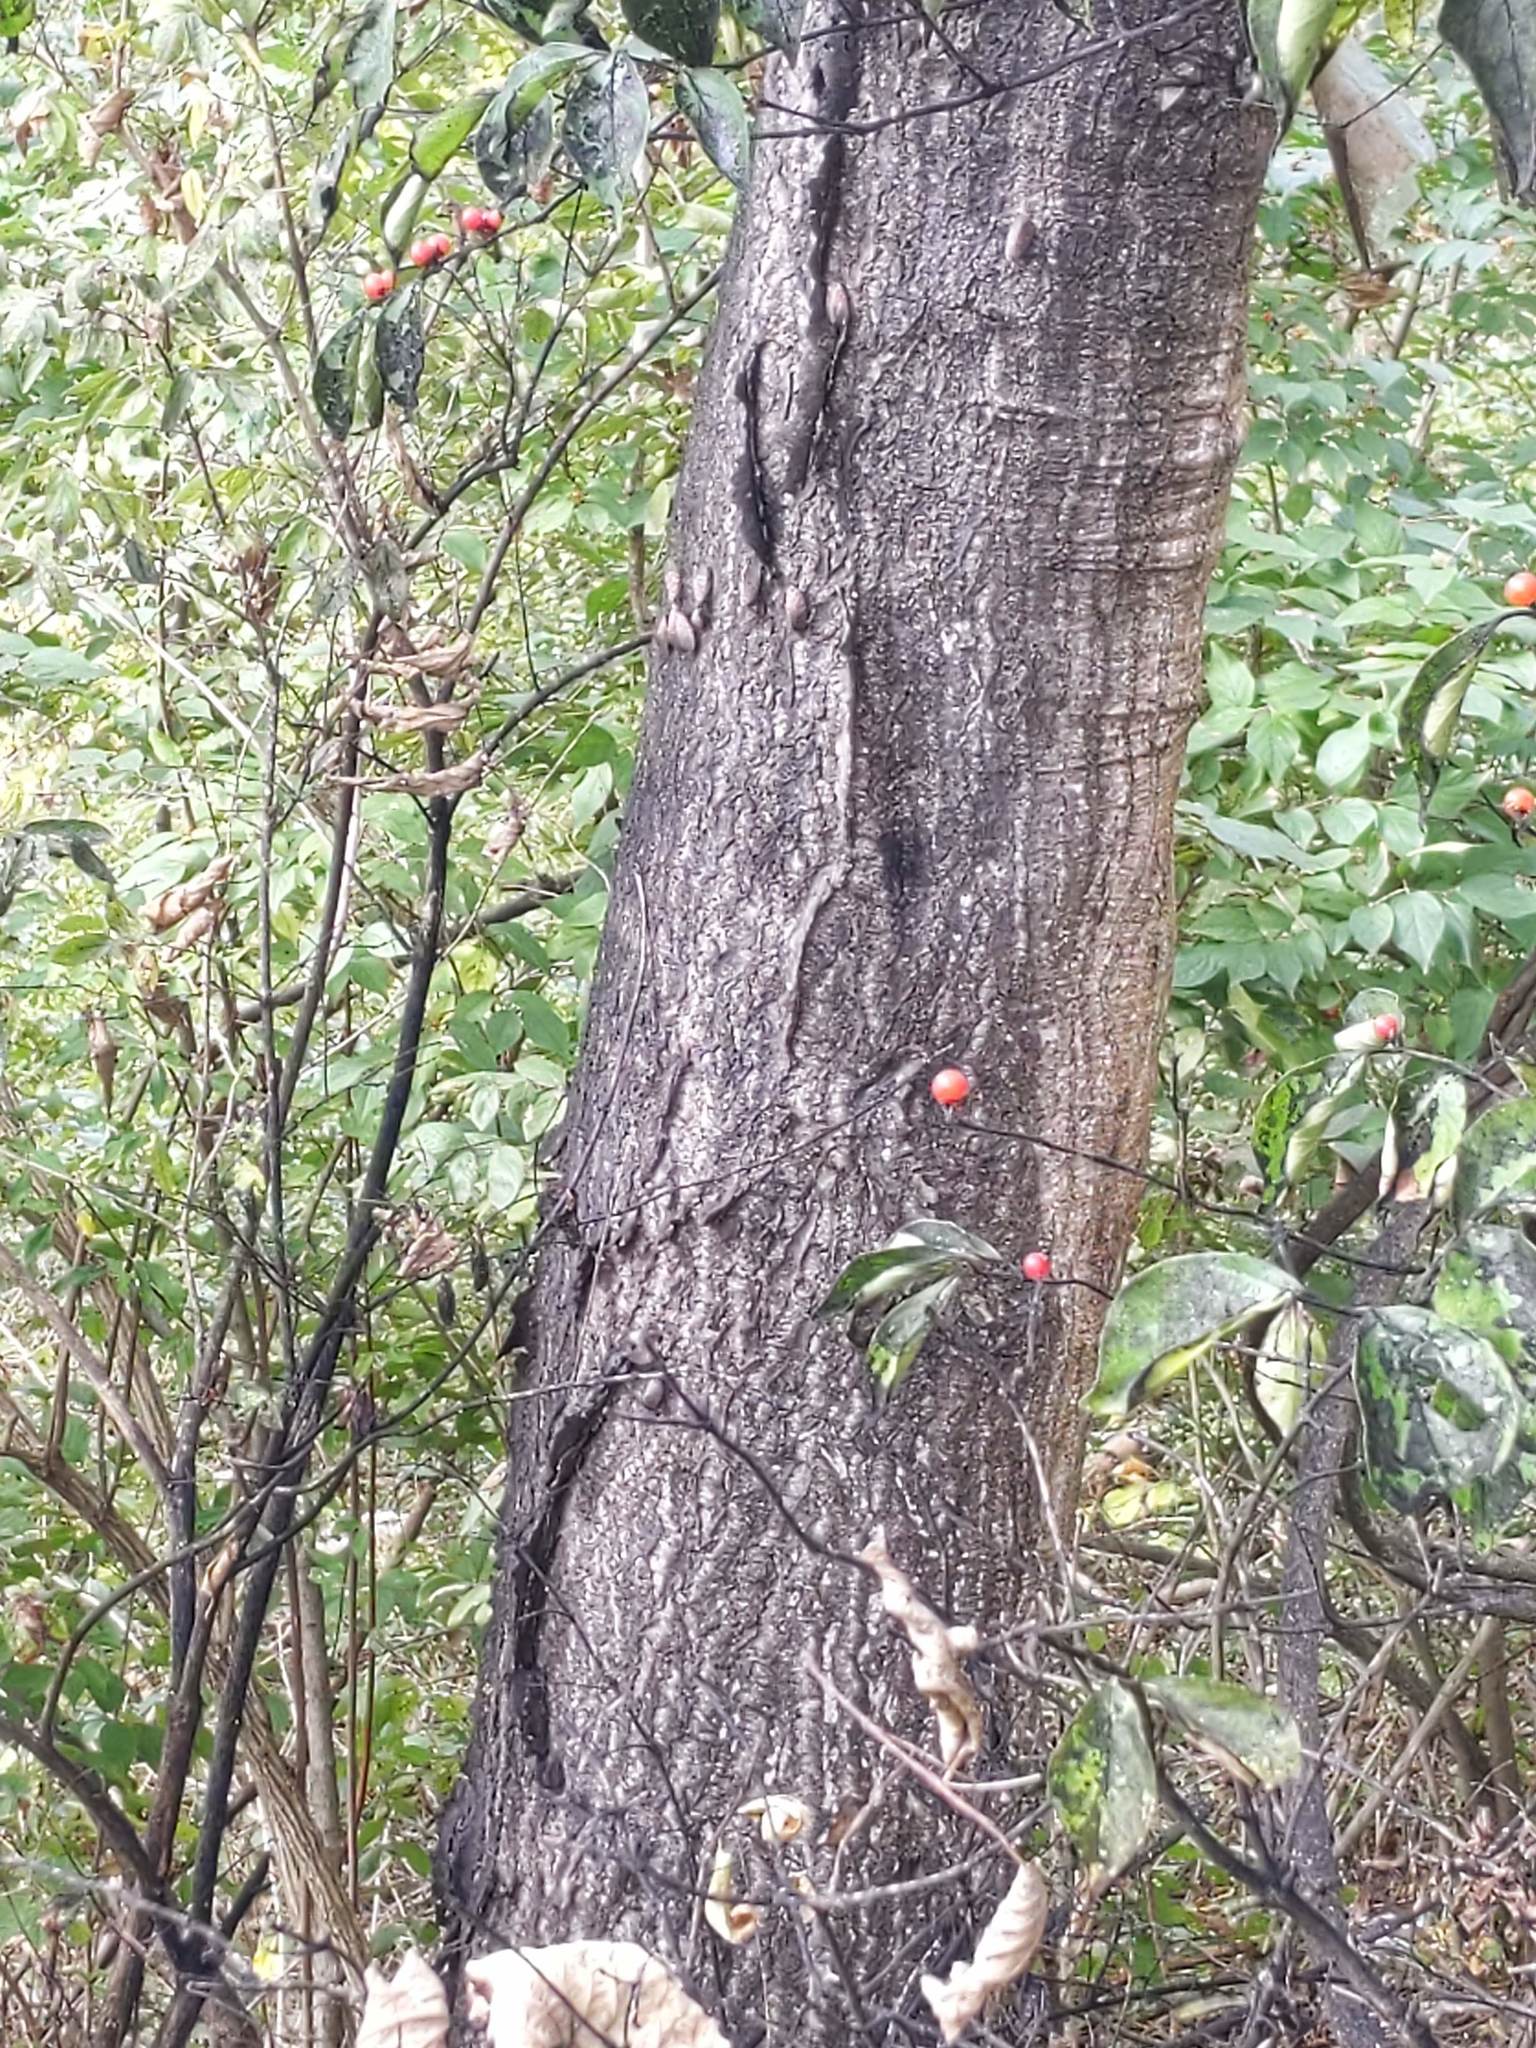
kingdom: Animalia
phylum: Arthropoda
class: Insecta
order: Hemiptera
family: Fulgoridae
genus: Lycorma
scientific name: Lycorma delicatula
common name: Spotted lanternfly
